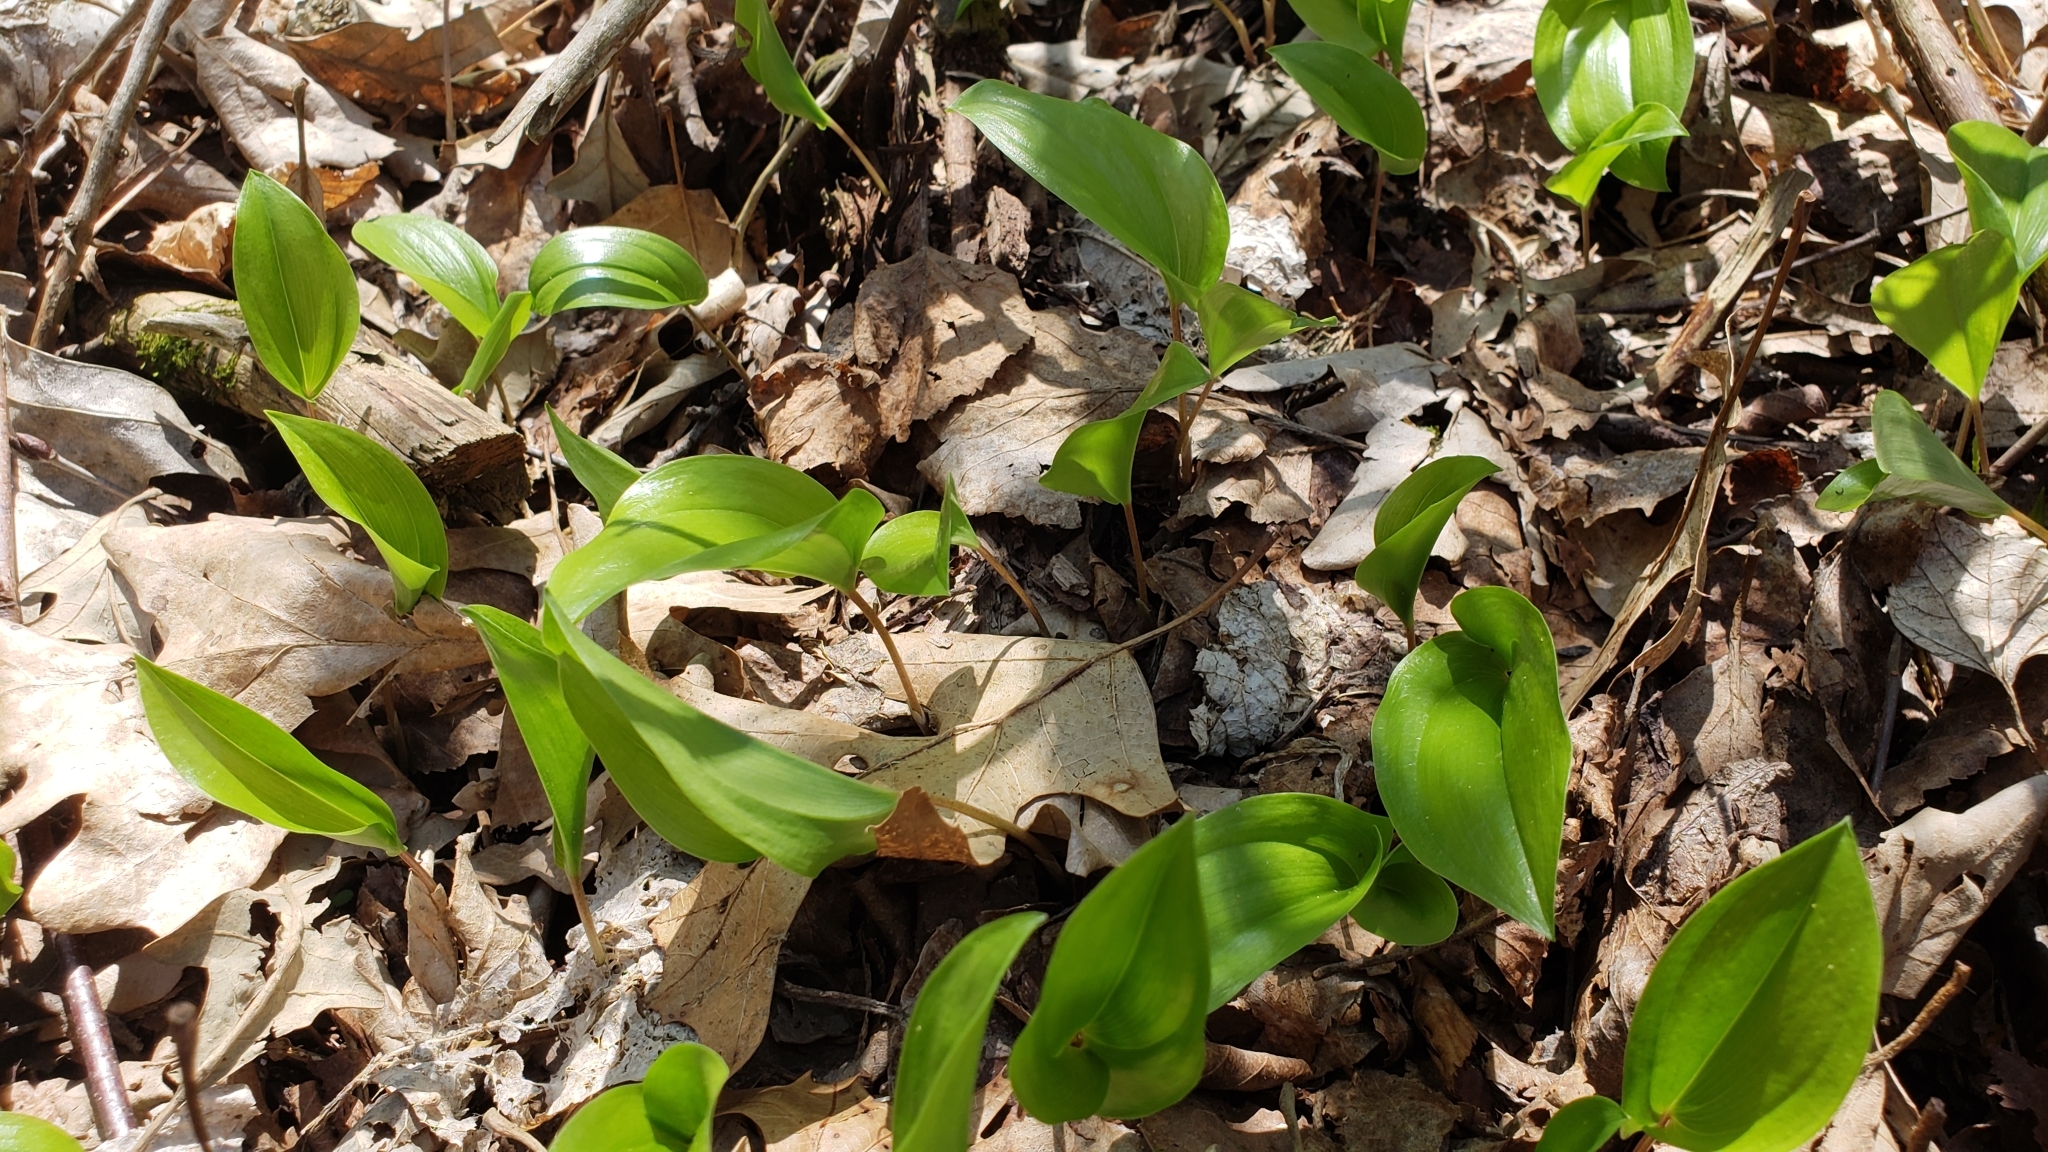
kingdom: Plantae
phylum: Tracheophyta
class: Liliopsida
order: Asparagales
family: Asparagaceae
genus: Maianthemum
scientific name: Maianthemum canadense
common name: False lily-of-the-valley
